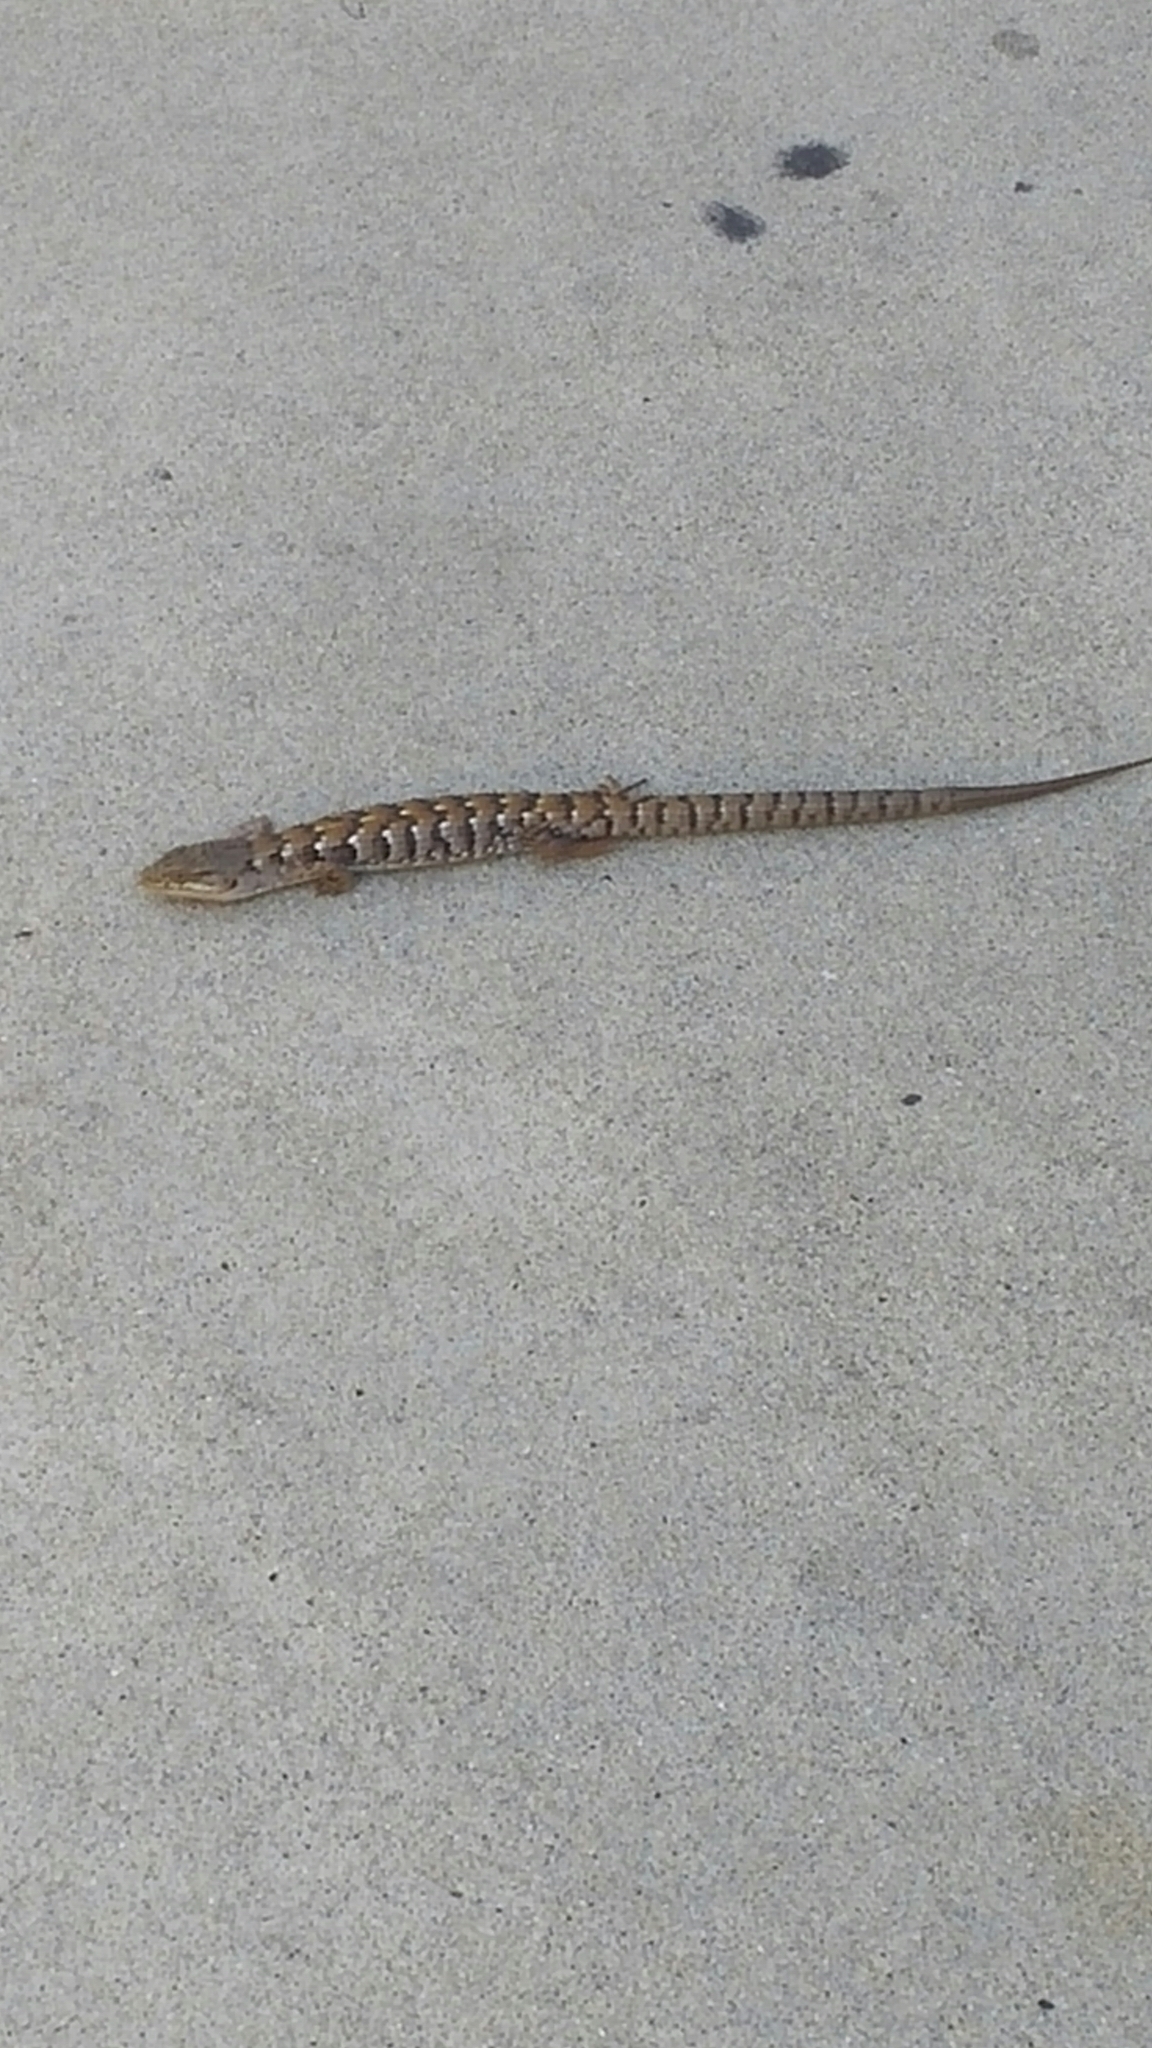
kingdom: Animalia
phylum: Chordata
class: Squamata
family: Anguidae
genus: Elgaria
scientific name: Elgaria multicarinata
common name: Southern alligator lizard
